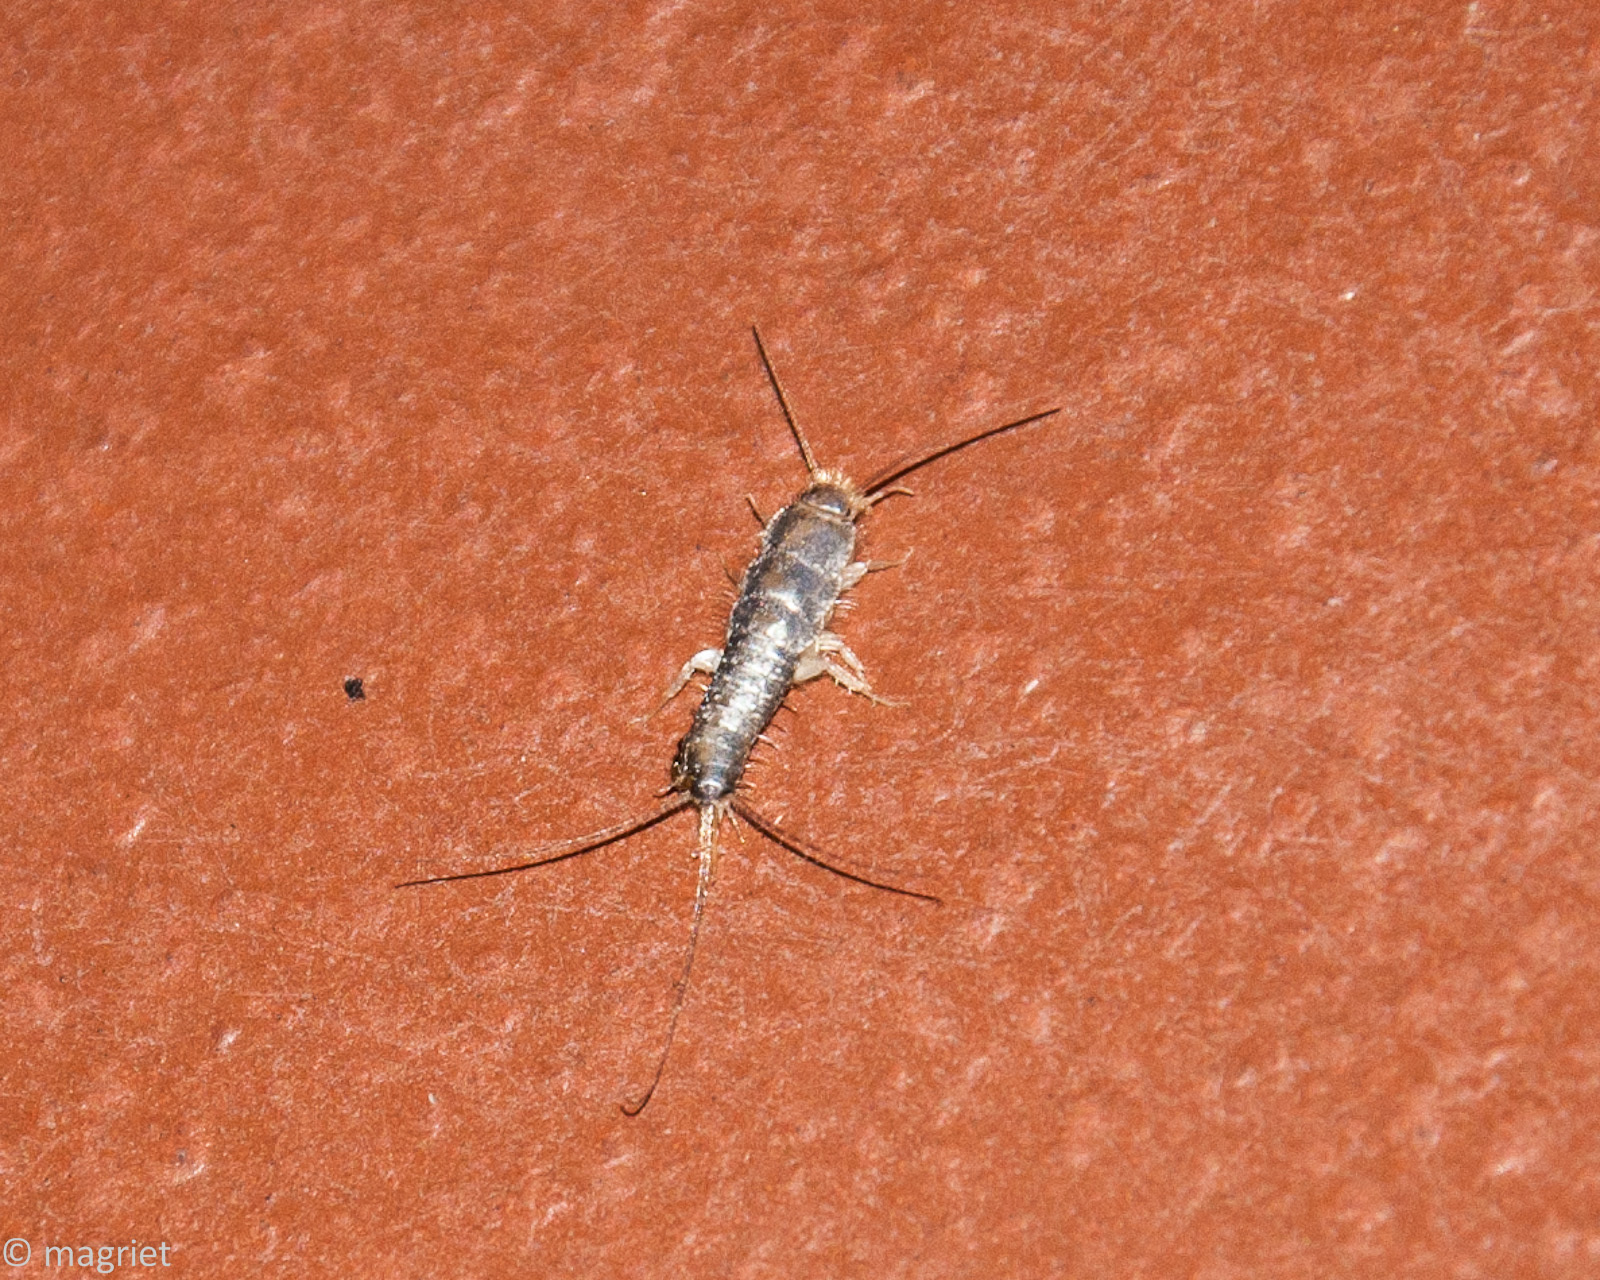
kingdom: Animalia
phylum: Arthropoda
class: Insecta
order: Zygentoma
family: Lepismatidae
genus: Ctenolepisma
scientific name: Ctenolepisma longicaudatum
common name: Silverfish
